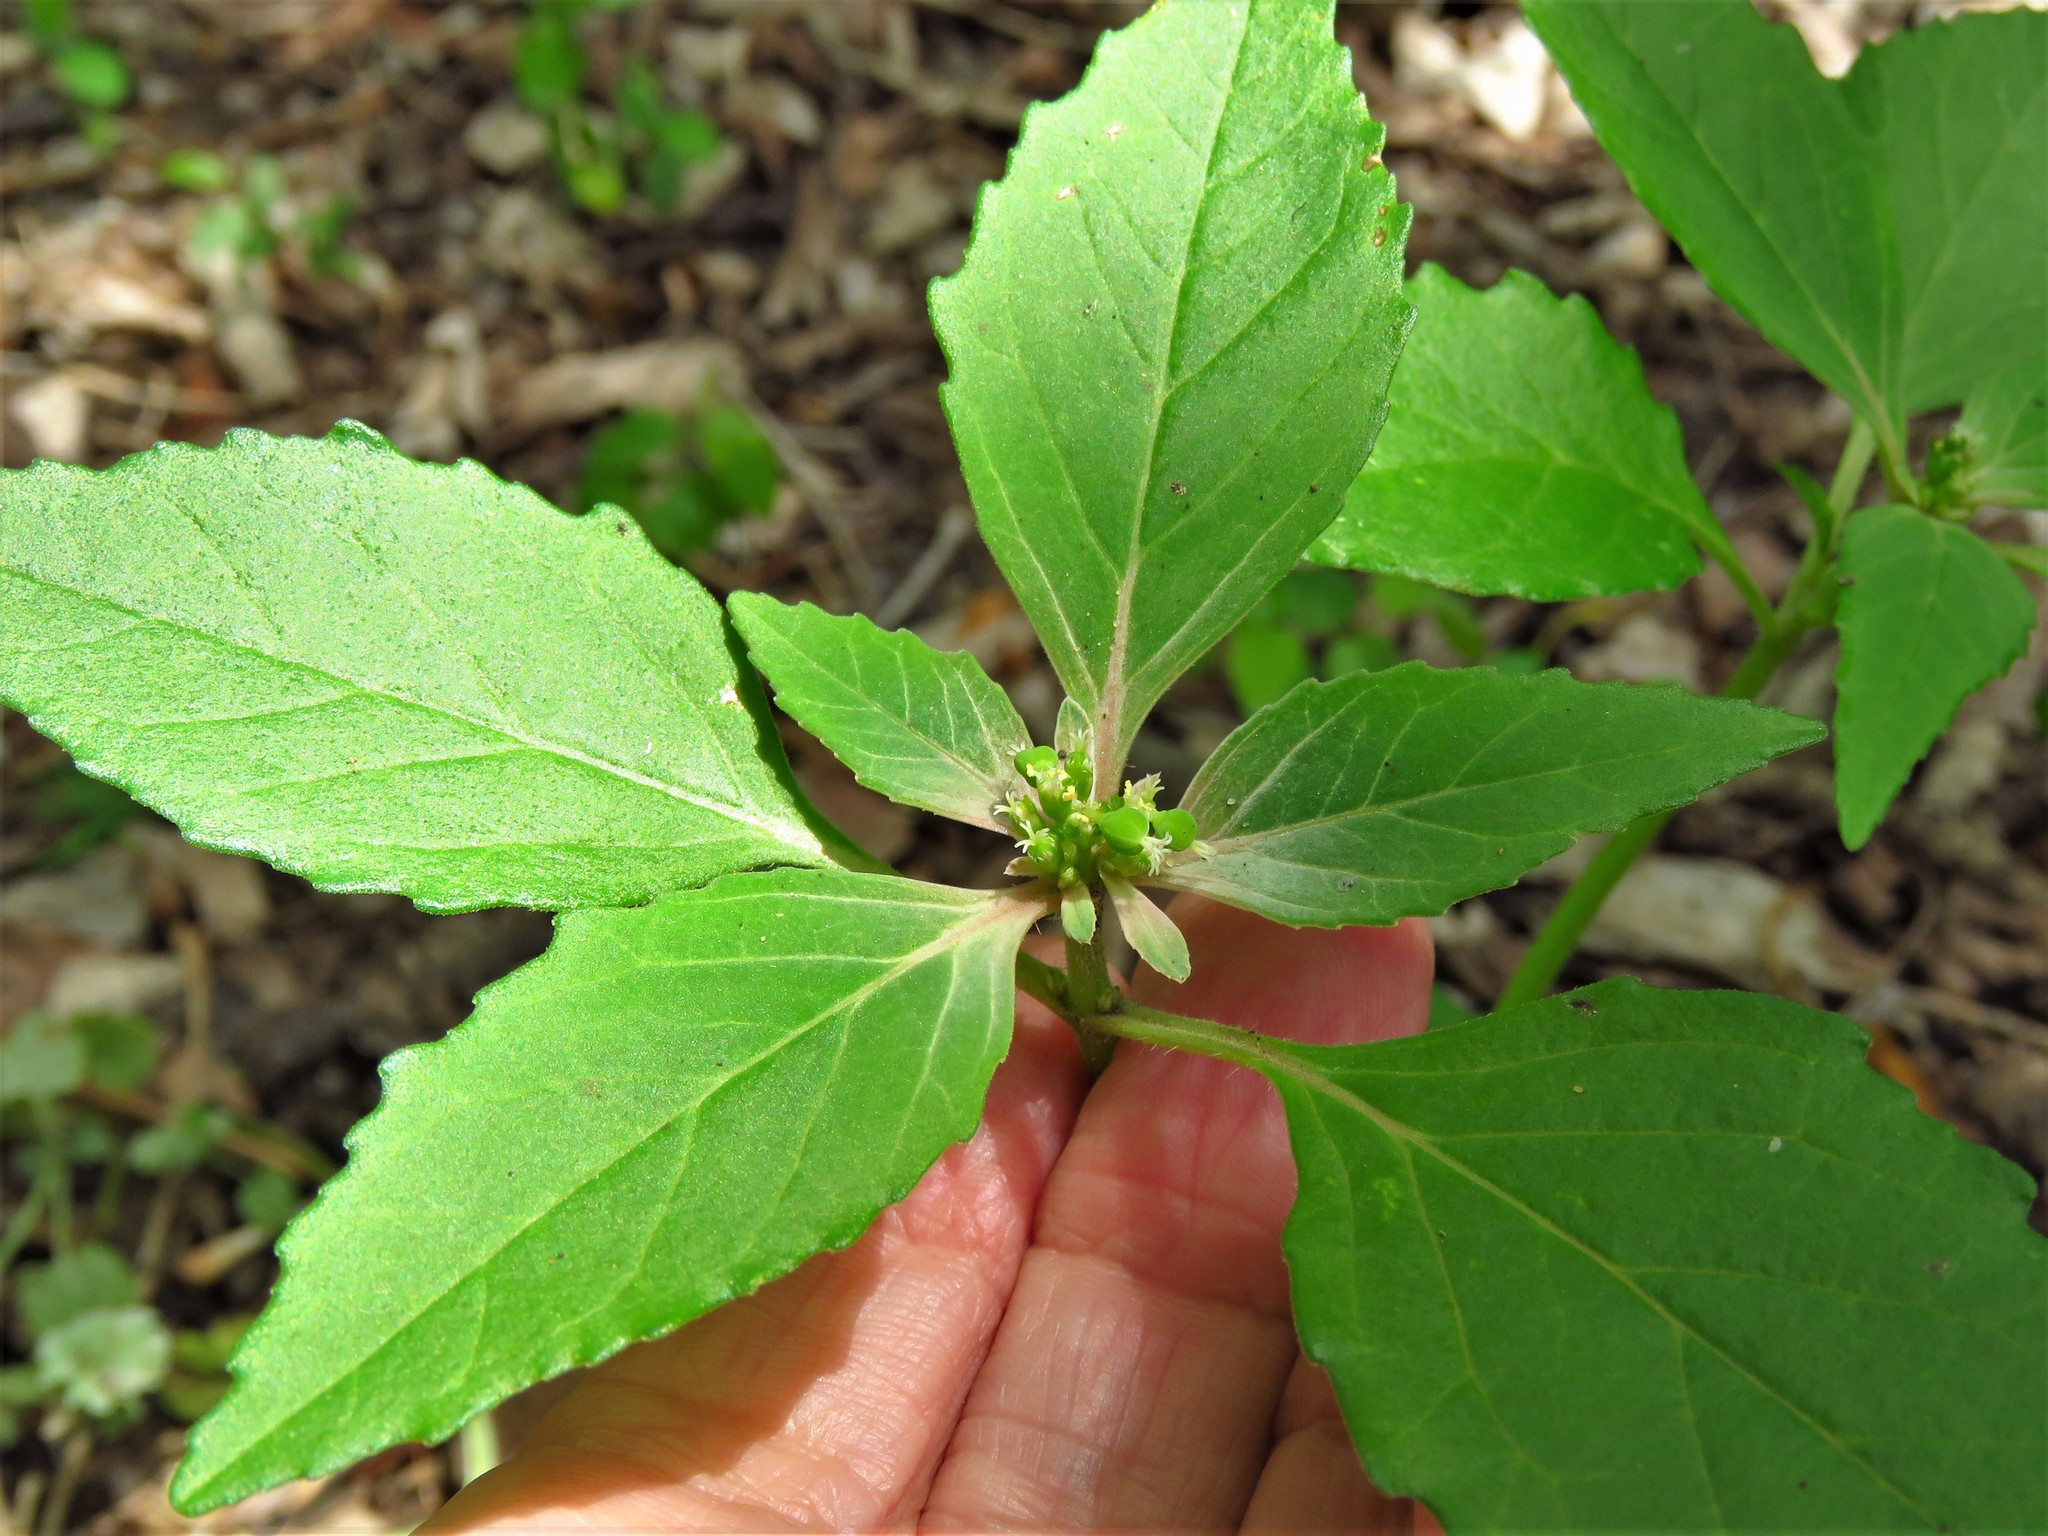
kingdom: Plantae
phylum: Tracheophyta
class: Magnoliopsida
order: Malpighiales
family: Euphorbiaceae
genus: Euphorbia
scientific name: Euphorbia dentata
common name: Dentate spurge
